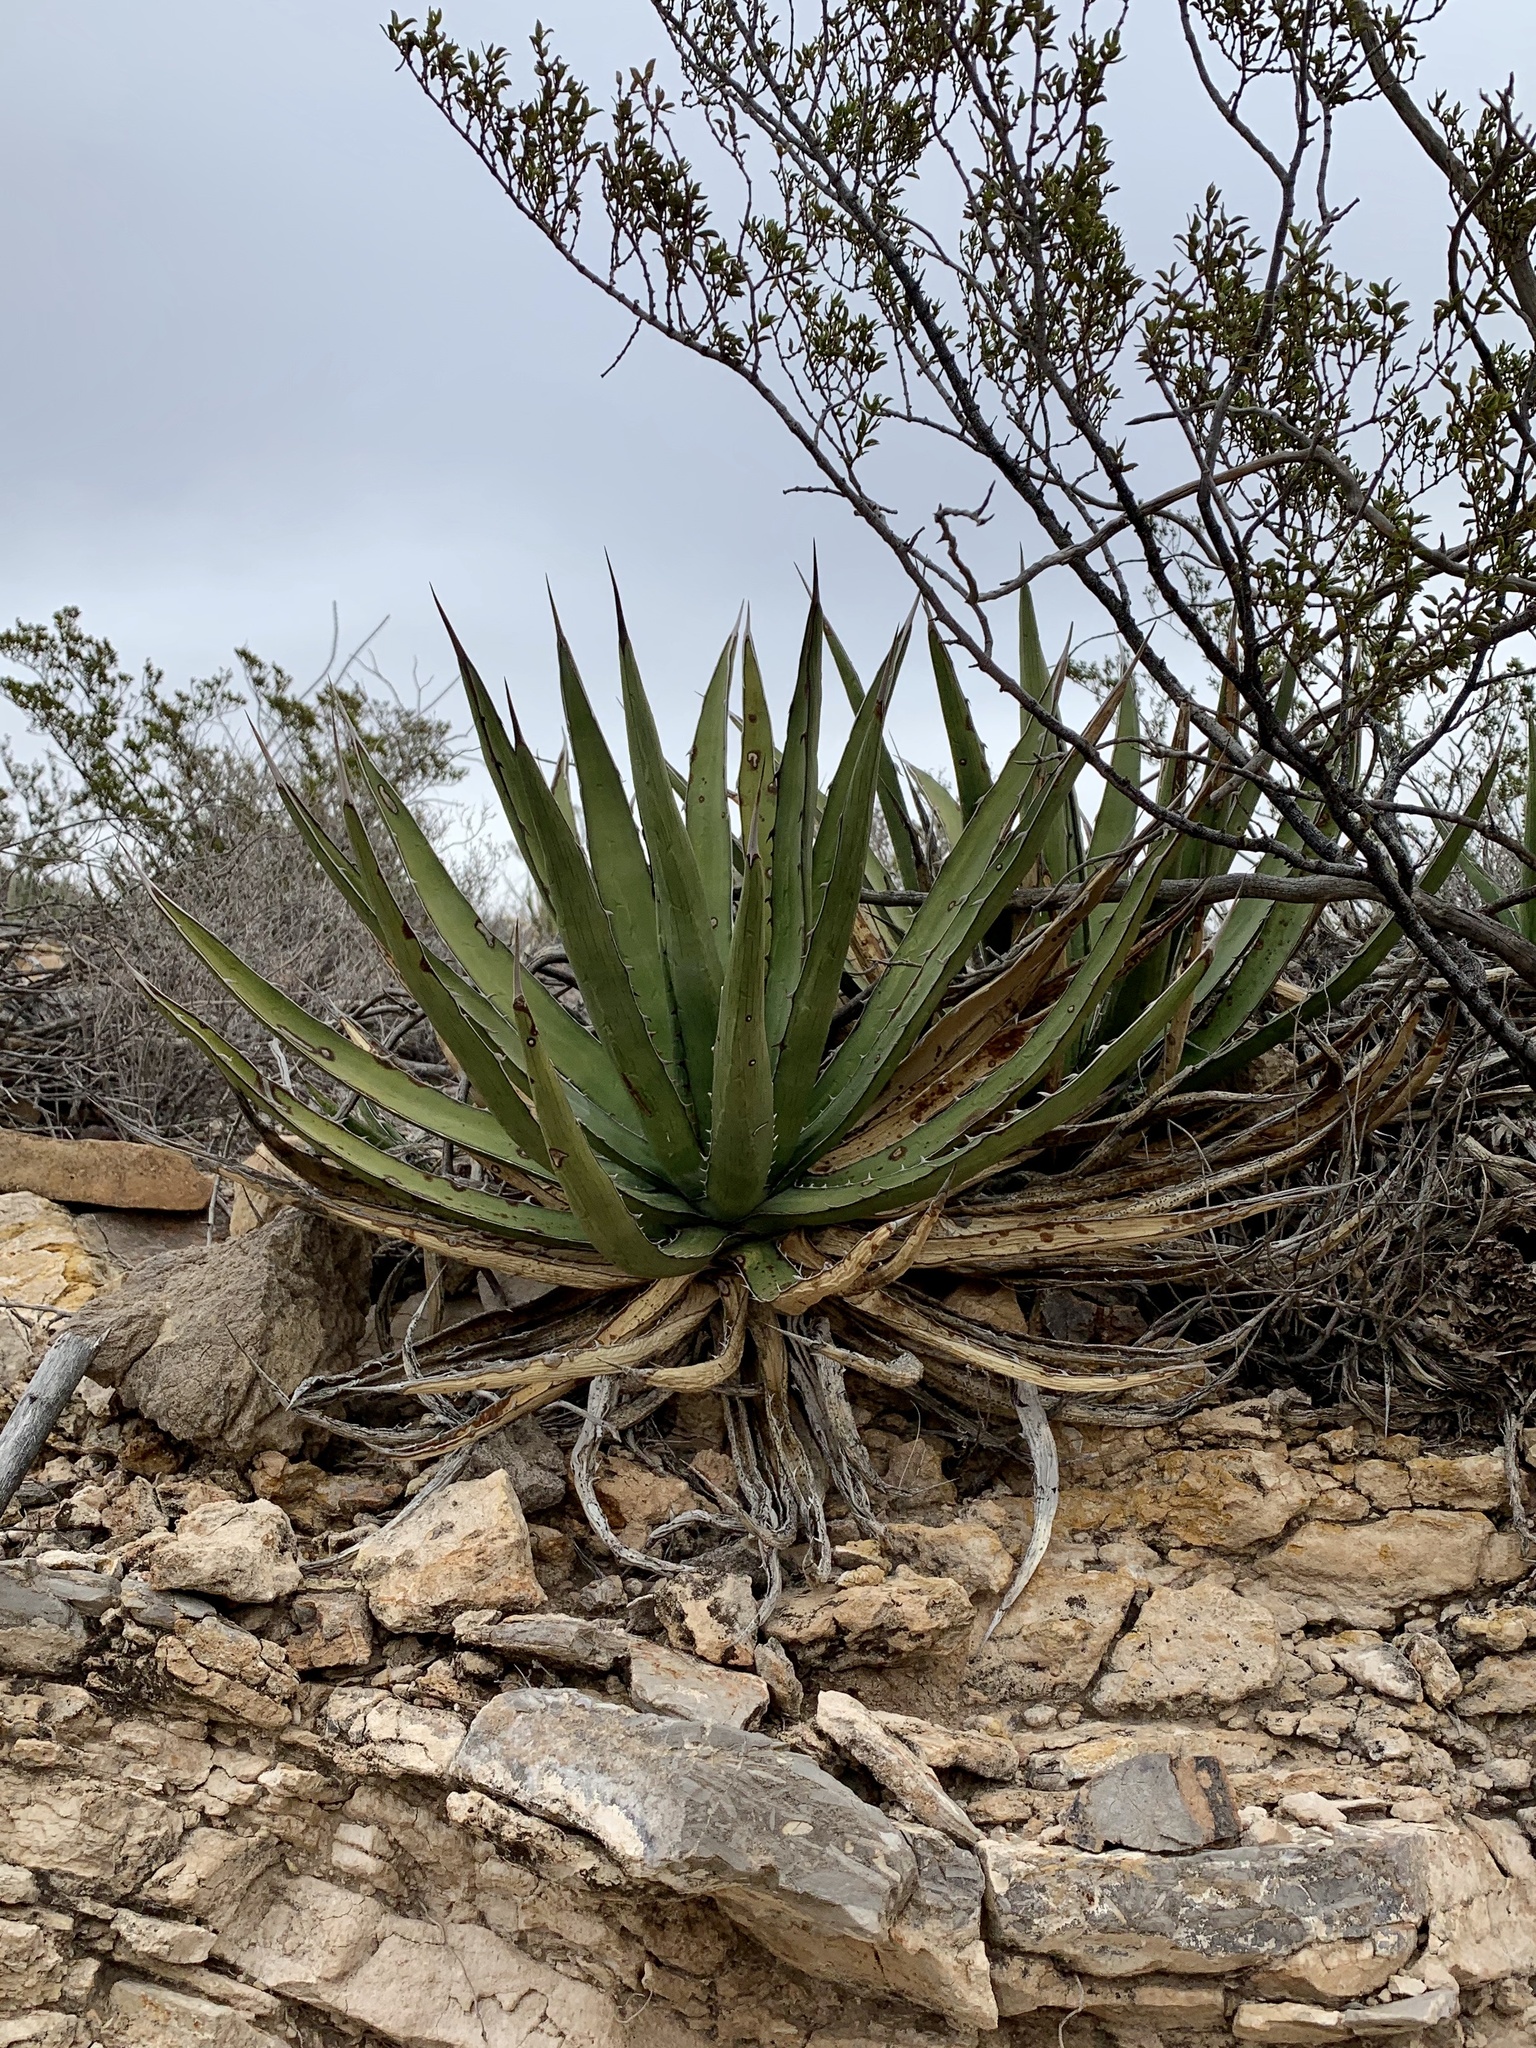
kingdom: Plantae
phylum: Tracheophyta
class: Liliopsida
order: Asparagales
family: Asparagaceae
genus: Agave
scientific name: Agave lechuguilla
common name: Lecheguilla agave
